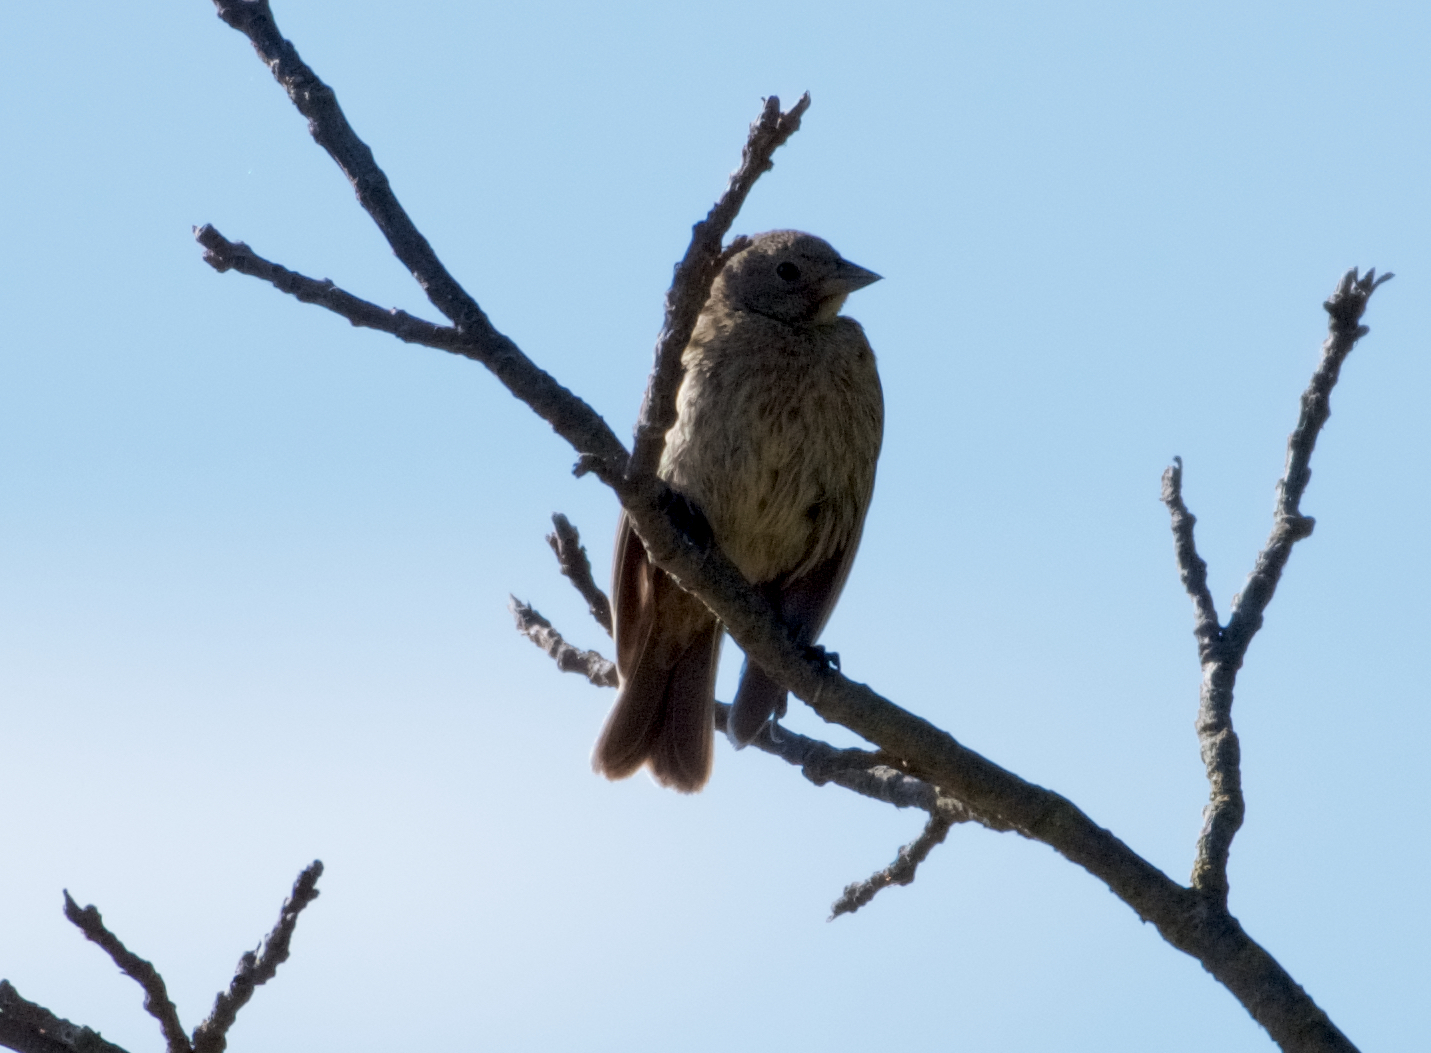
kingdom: Animalia
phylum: Chordata
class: Aves
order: Passeriformes
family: Icteridae
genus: Molothrus
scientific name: Molothrus ater
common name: Brown-headed cowbird
